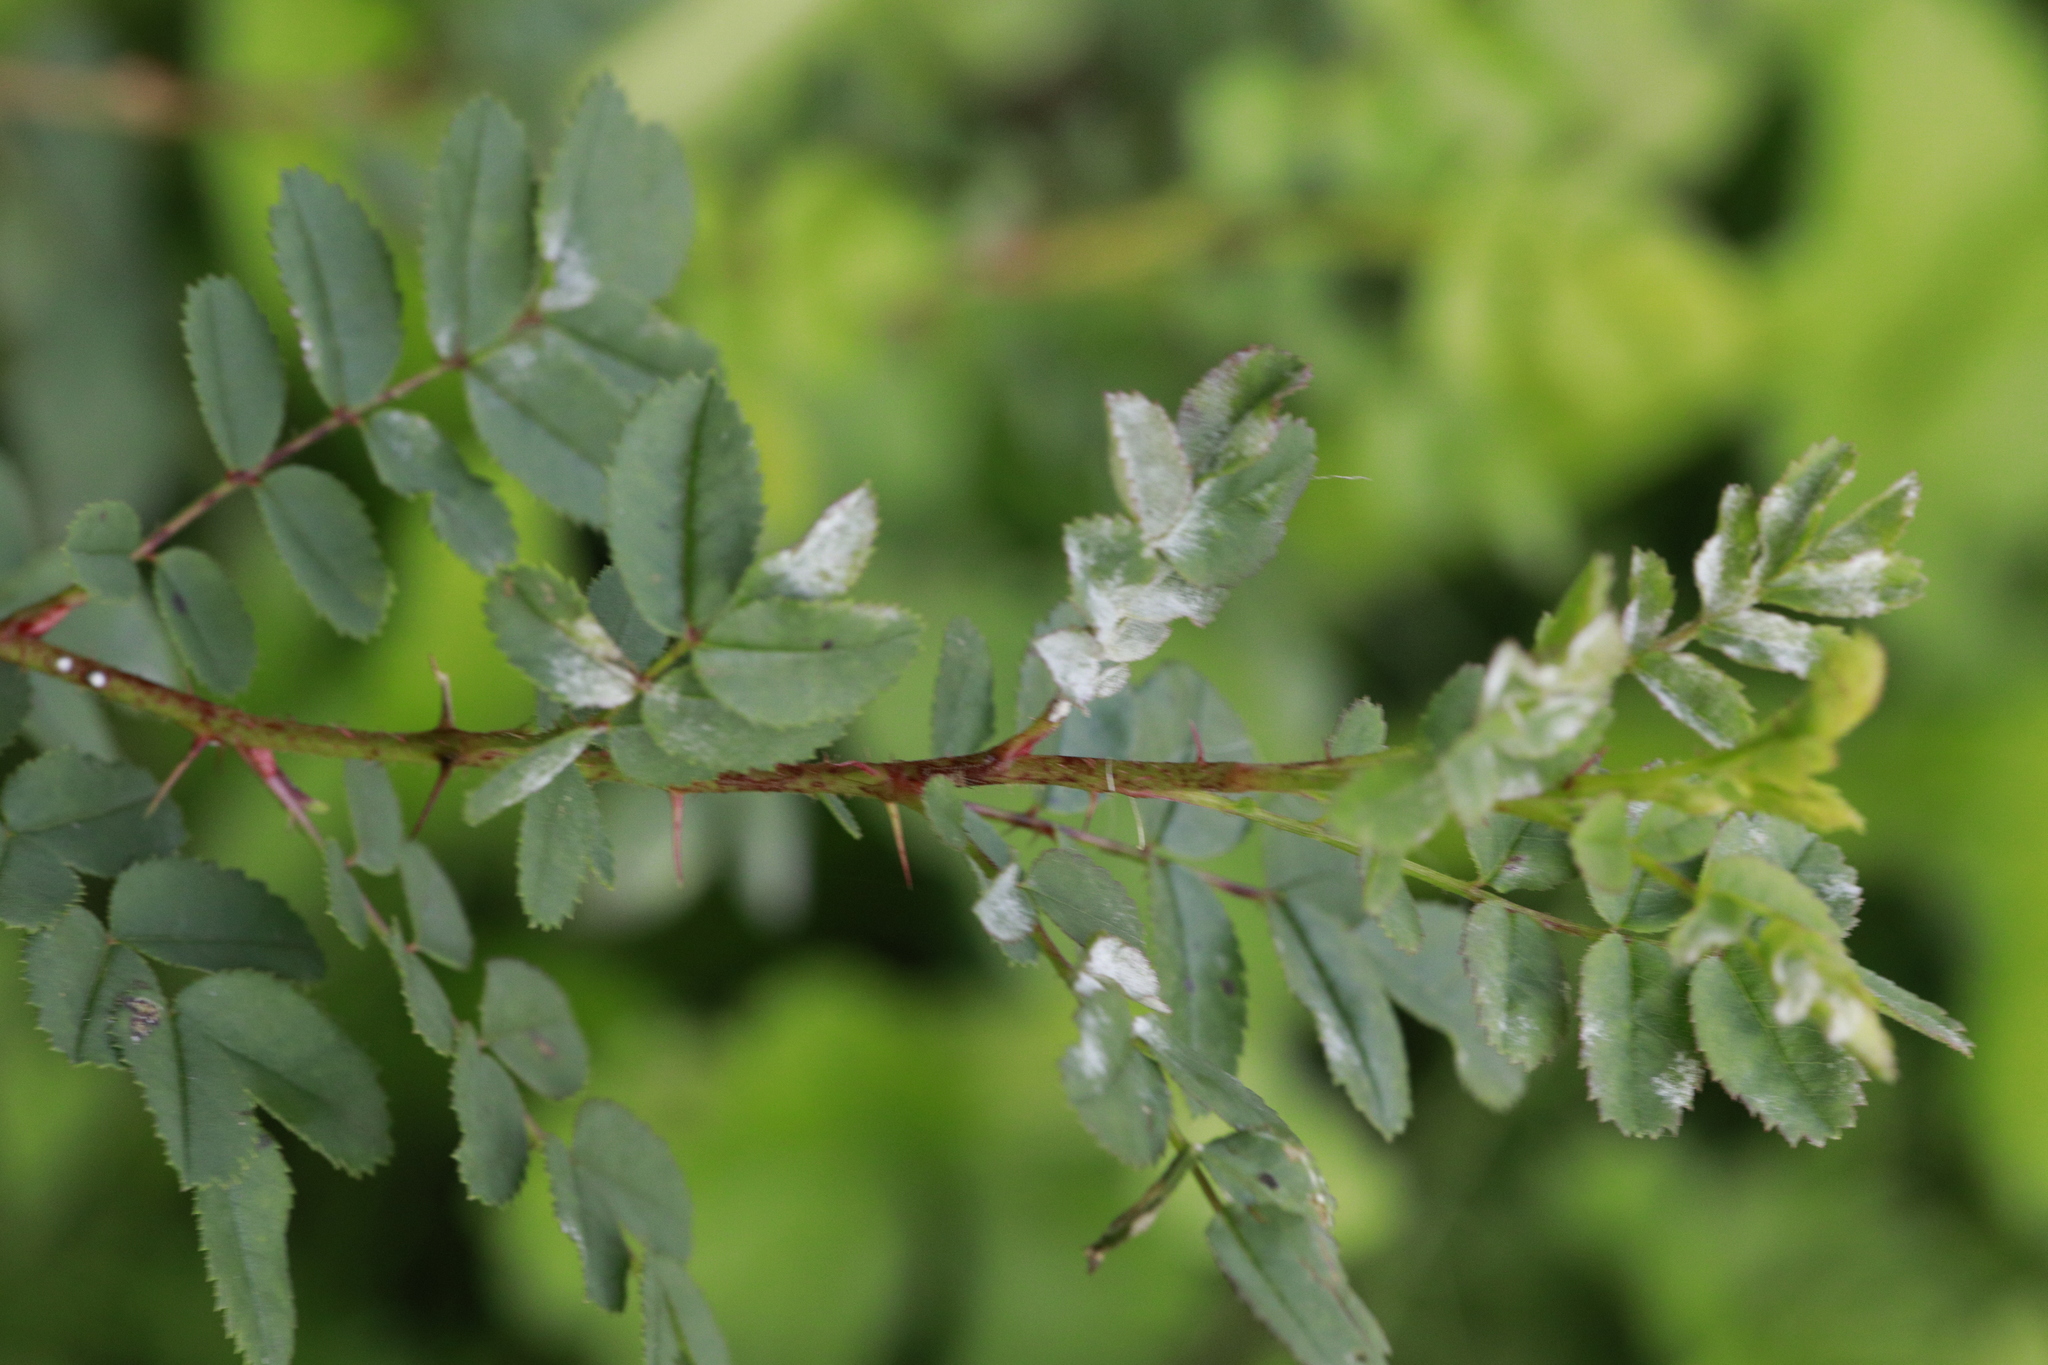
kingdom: Fungi
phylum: Ascomycota
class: Leotiomycetes
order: Helotiales
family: Erysiphaceae
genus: Podosphaera
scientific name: Podosphaera pannosa
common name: Rose mildew
